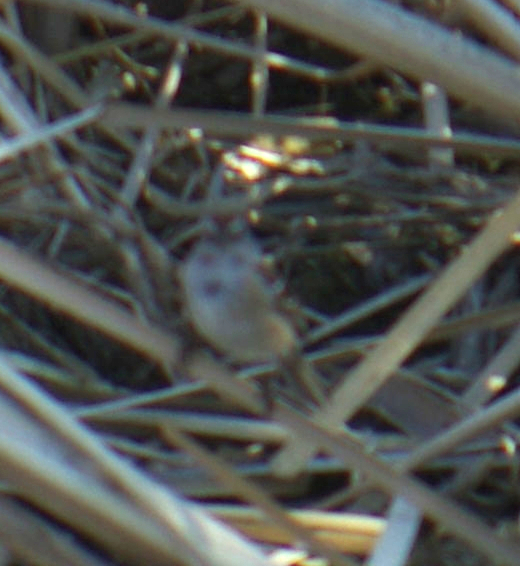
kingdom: Animalia
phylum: Chordata
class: Aves
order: Passeriformes
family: Passerellidae
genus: Spizelloides
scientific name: Spizelloides arborea
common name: American tree sparrow
